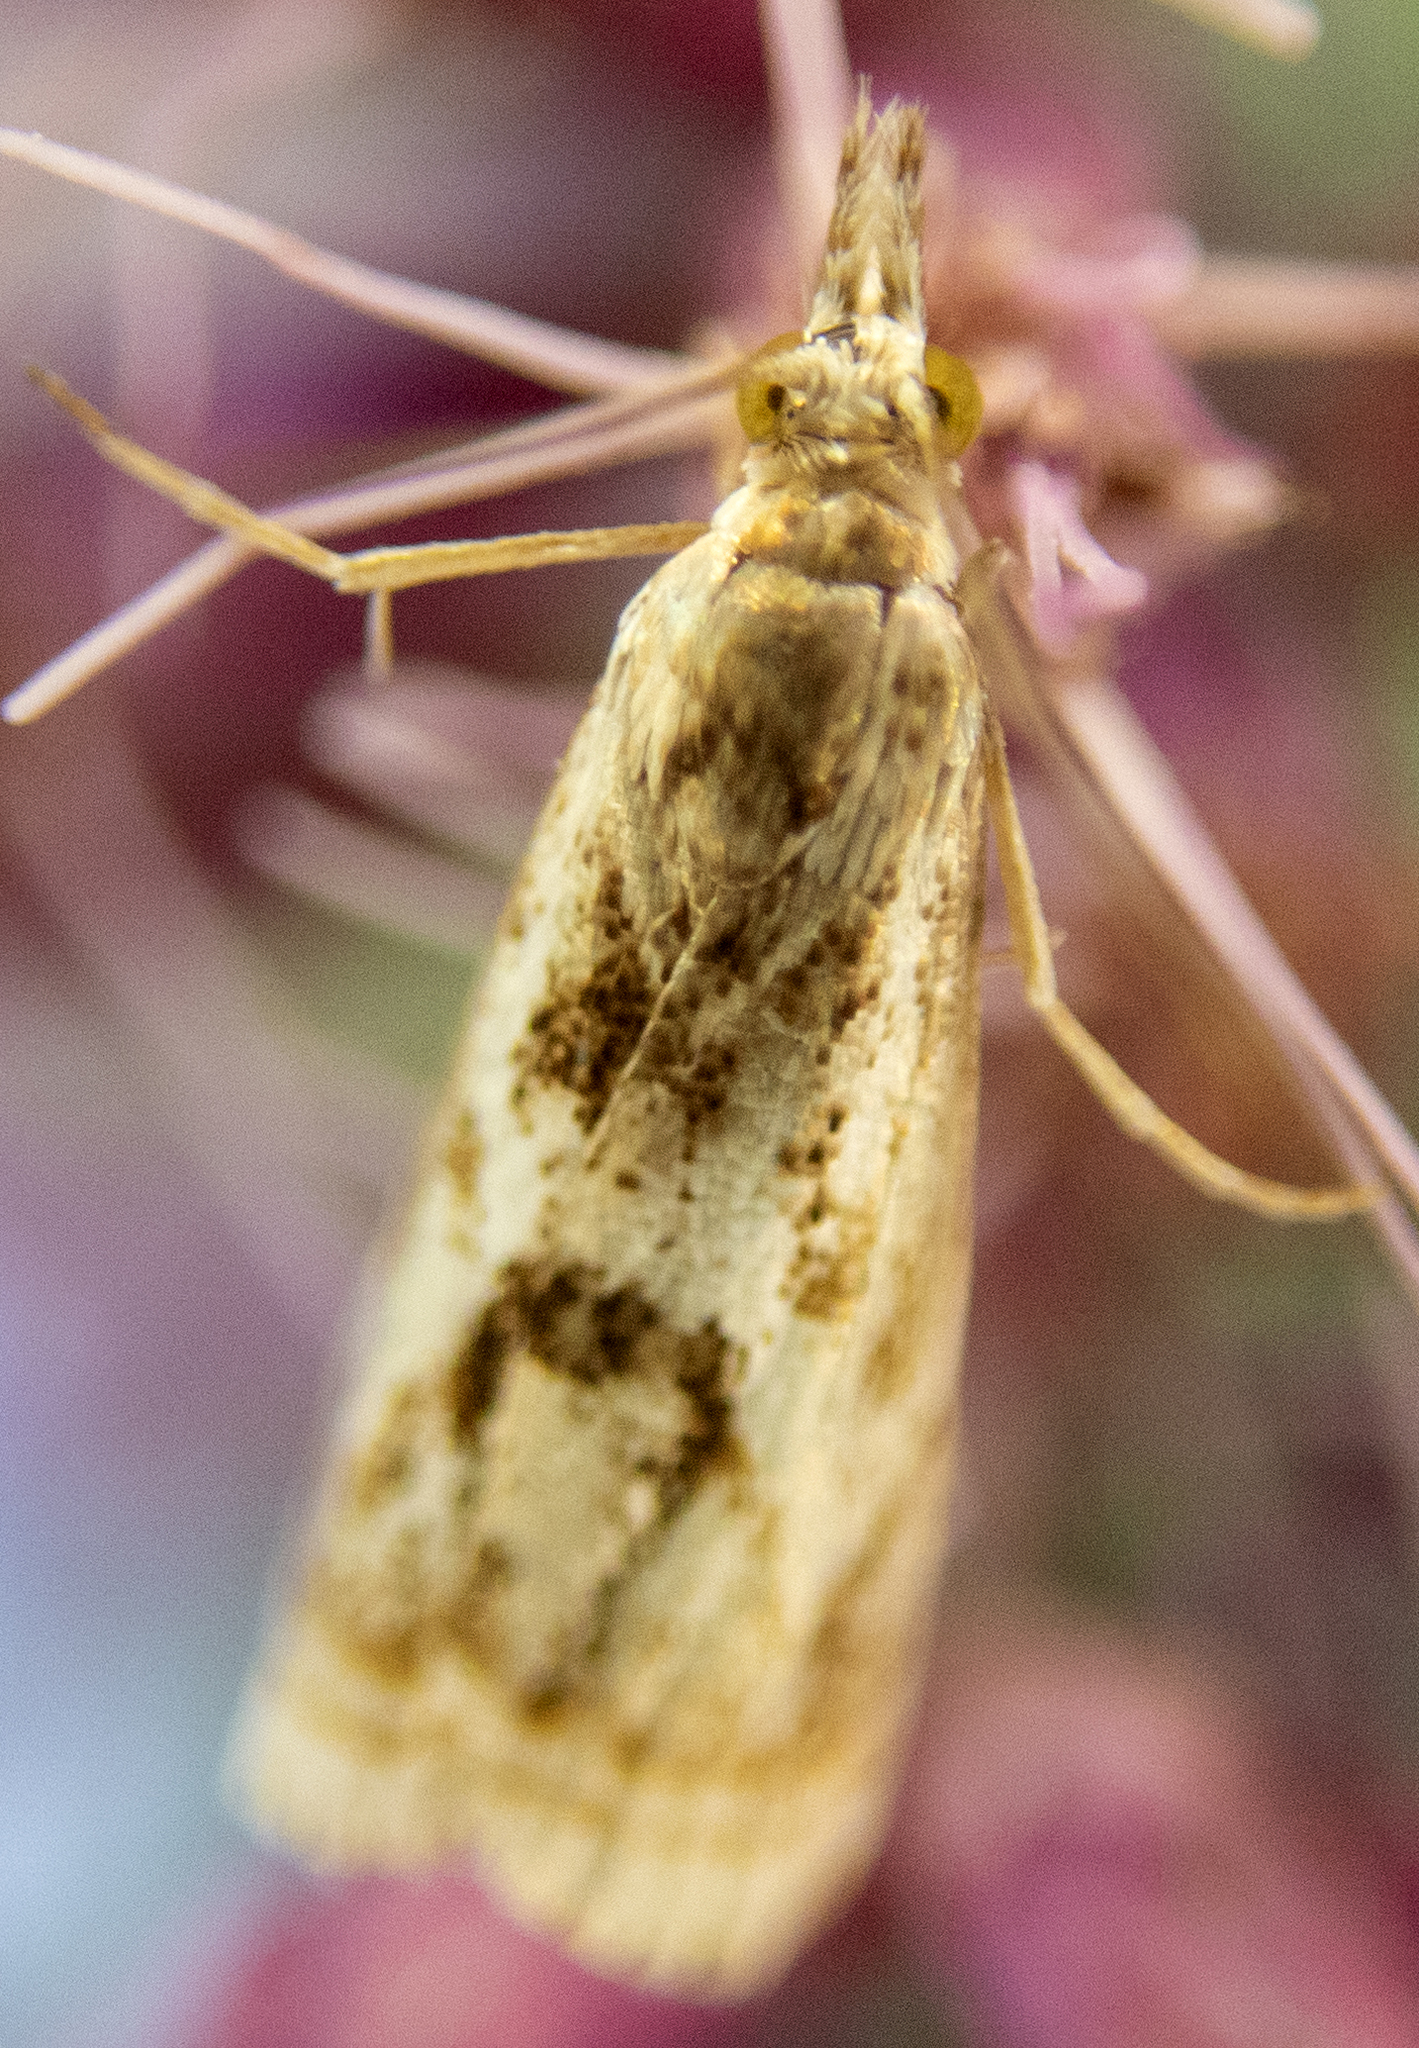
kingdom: Animalia
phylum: Arthropoda
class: Insecta
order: Lepidoptera
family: Crambidae
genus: Microcrambus
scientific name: Microcrambus elegans
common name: Elegant grass-veneer
